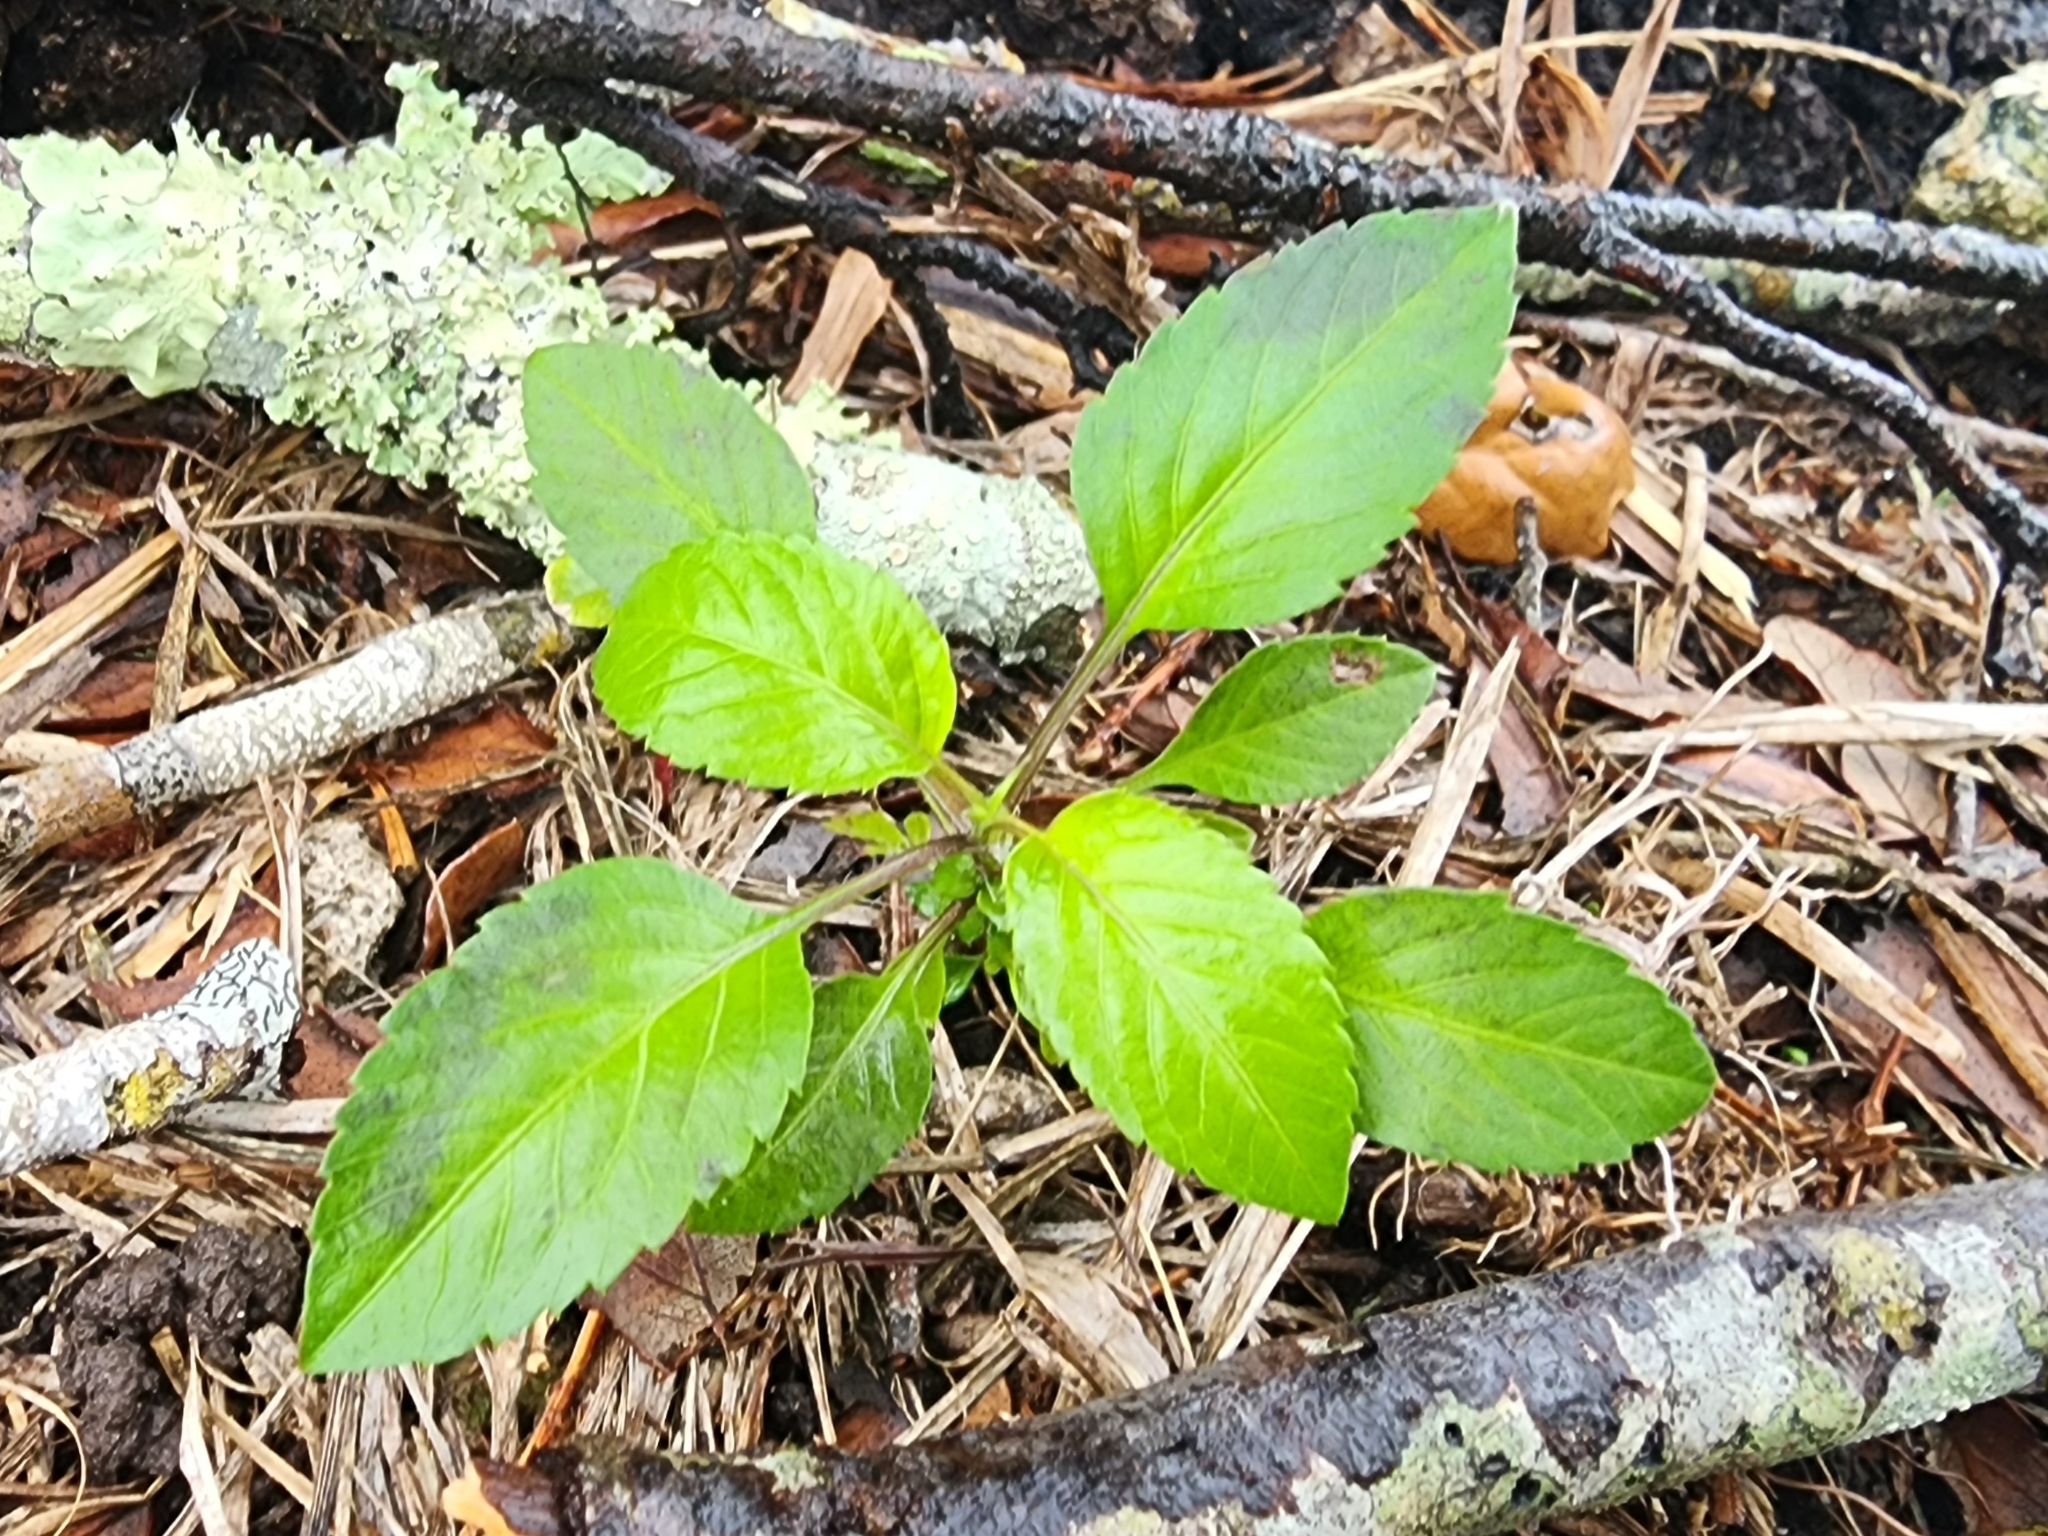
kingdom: Plantae
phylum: Tracheophyta
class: Magnoliopsida
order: Asterales
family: Asteraceae
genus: Bidens
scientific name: Bidens alba
